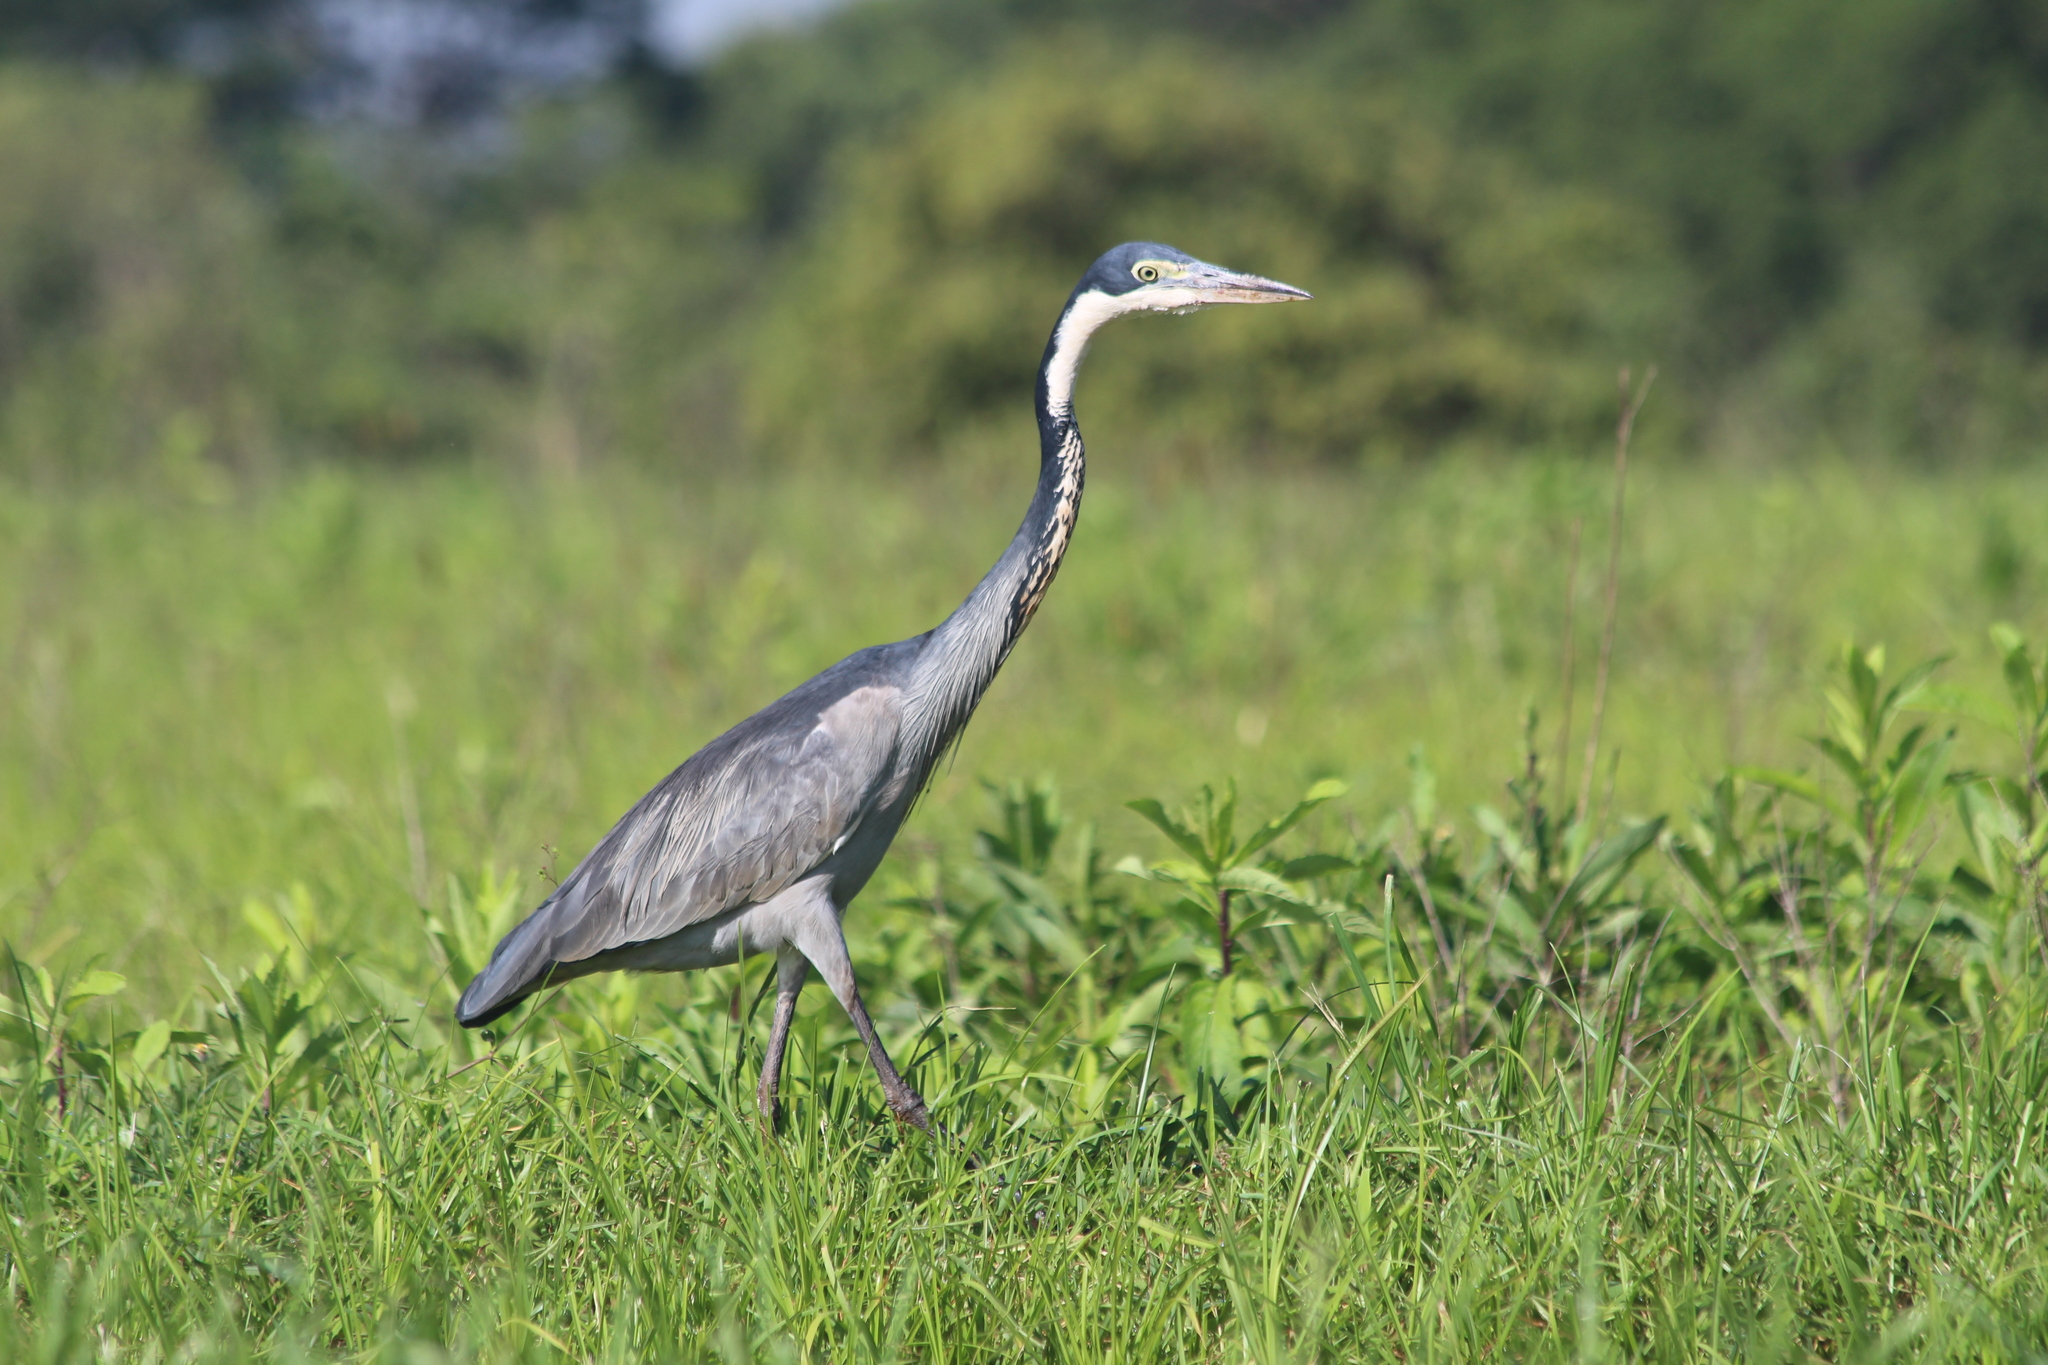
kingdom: Animalia
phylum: Chordata
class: Aves
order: Pelecaniformes
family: Ardeidae
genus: Ardea
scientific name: Ardea melanocephala
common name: Black-headed heron
